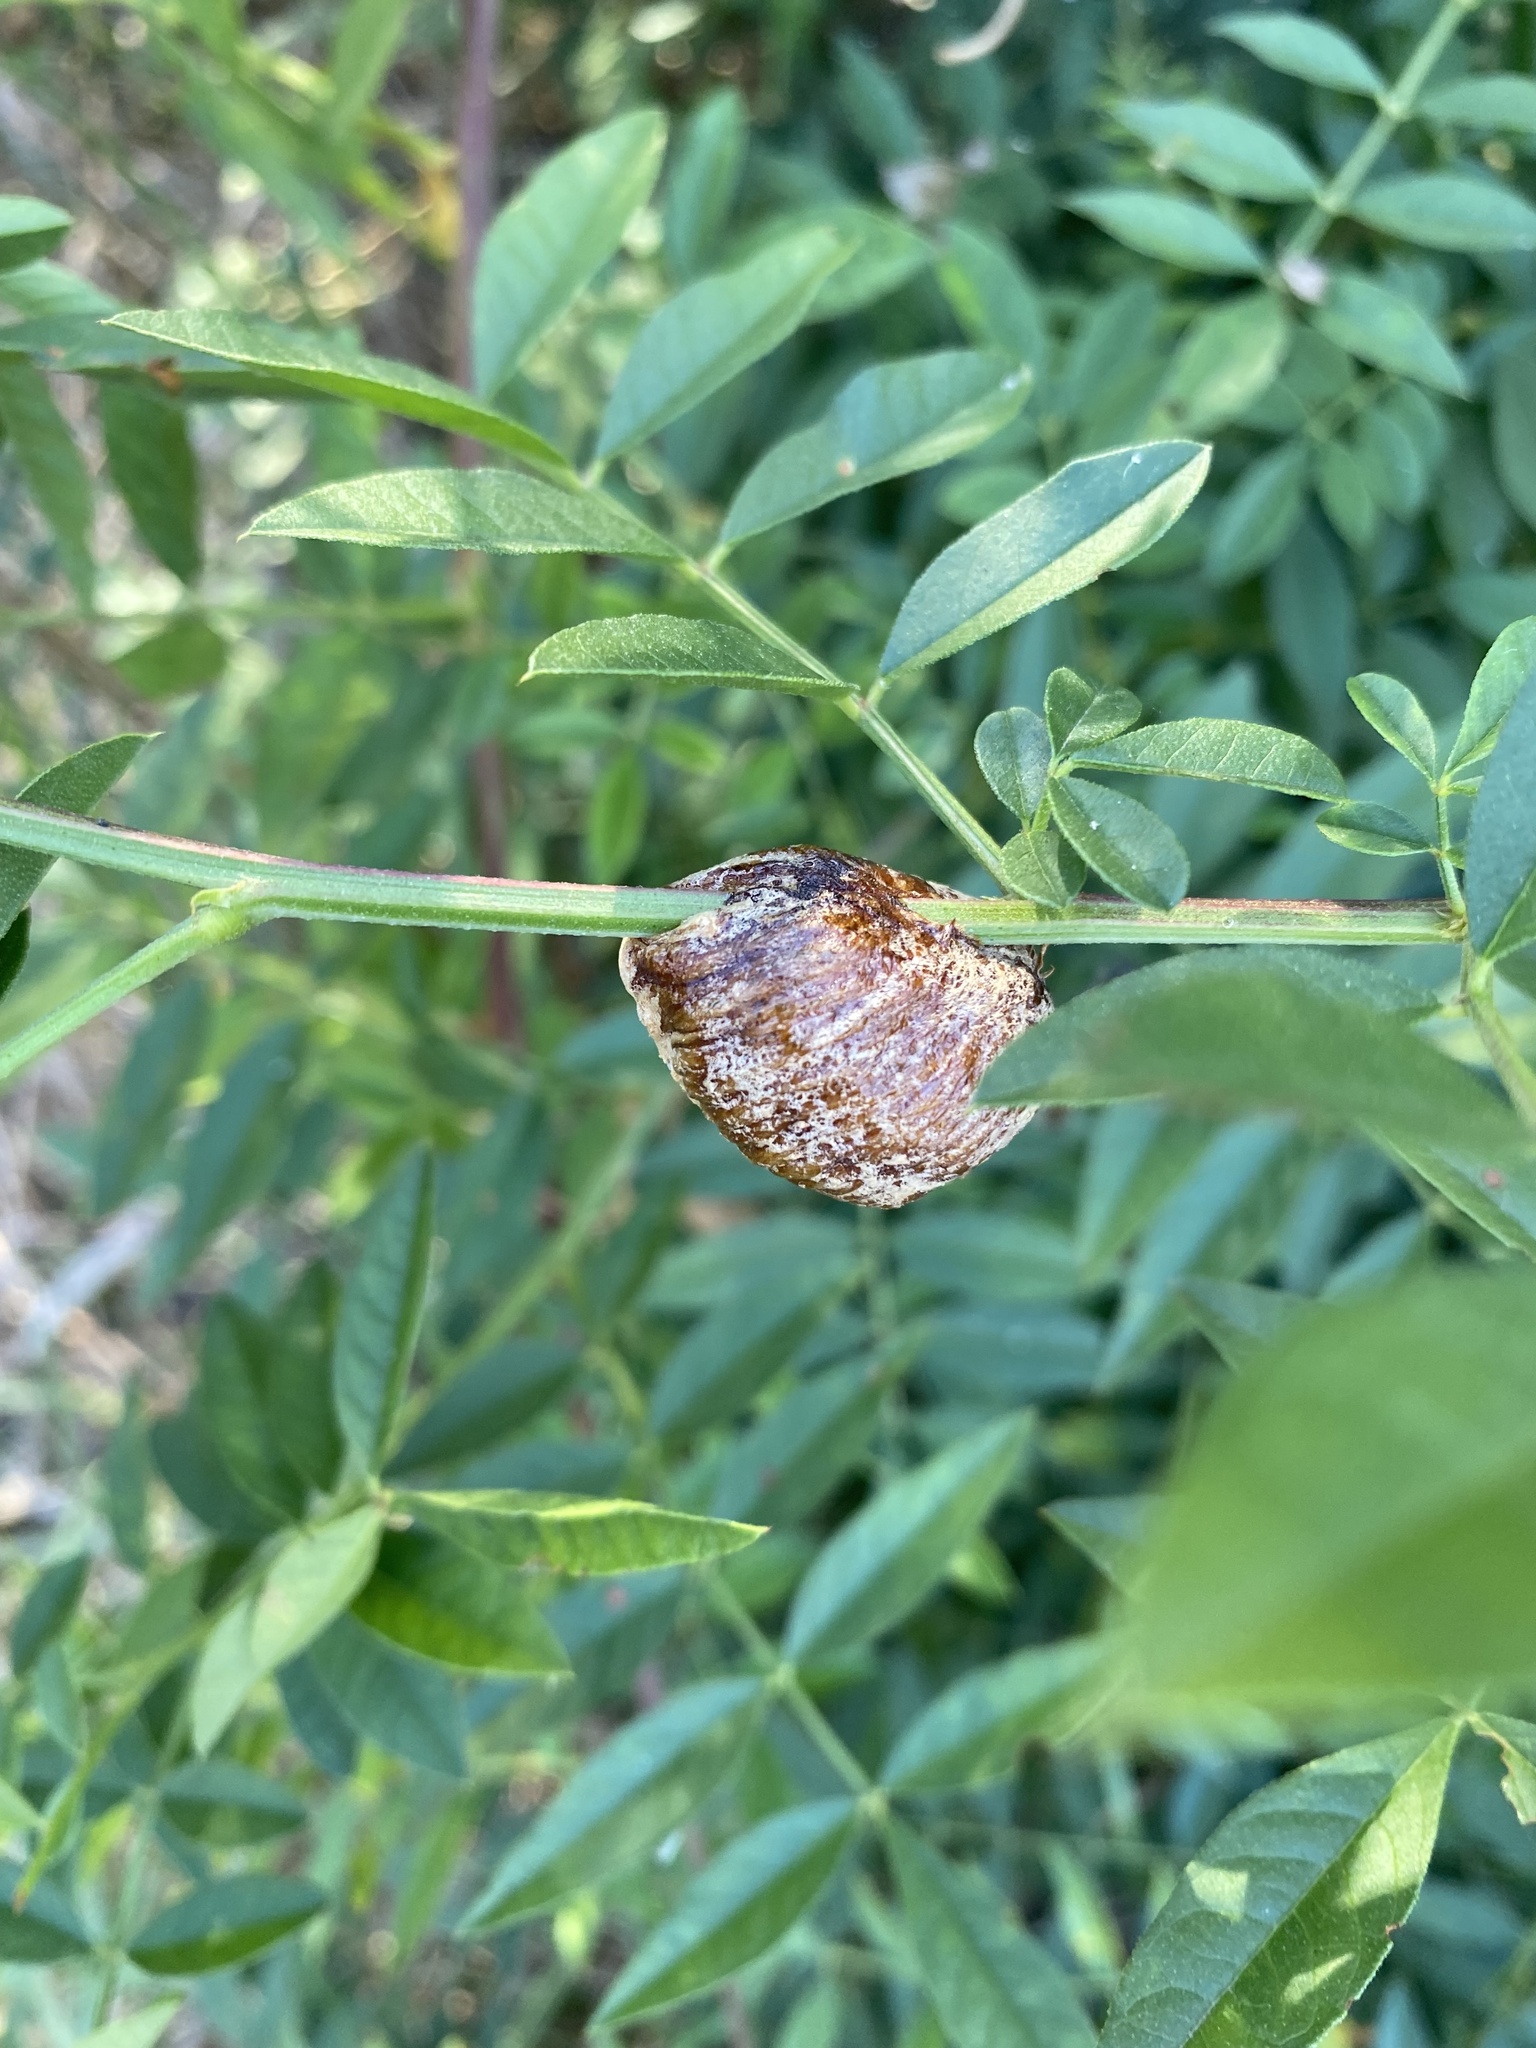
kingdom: Animalia
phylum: Arthropoda
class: Insecta
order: Mantodea
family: Mantidae
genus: Hierodula
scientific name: Hierodula transcaucasica
